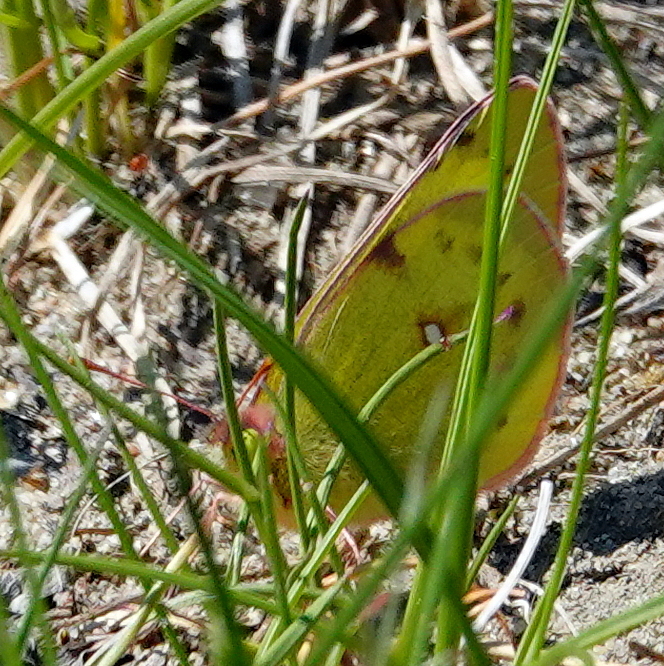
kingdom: Animalia
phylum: Arthropoda
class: Insecta
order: Lepidoptera
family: Pieridae
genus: Colias
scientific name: Colias philodice
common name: Clouded sulphur
